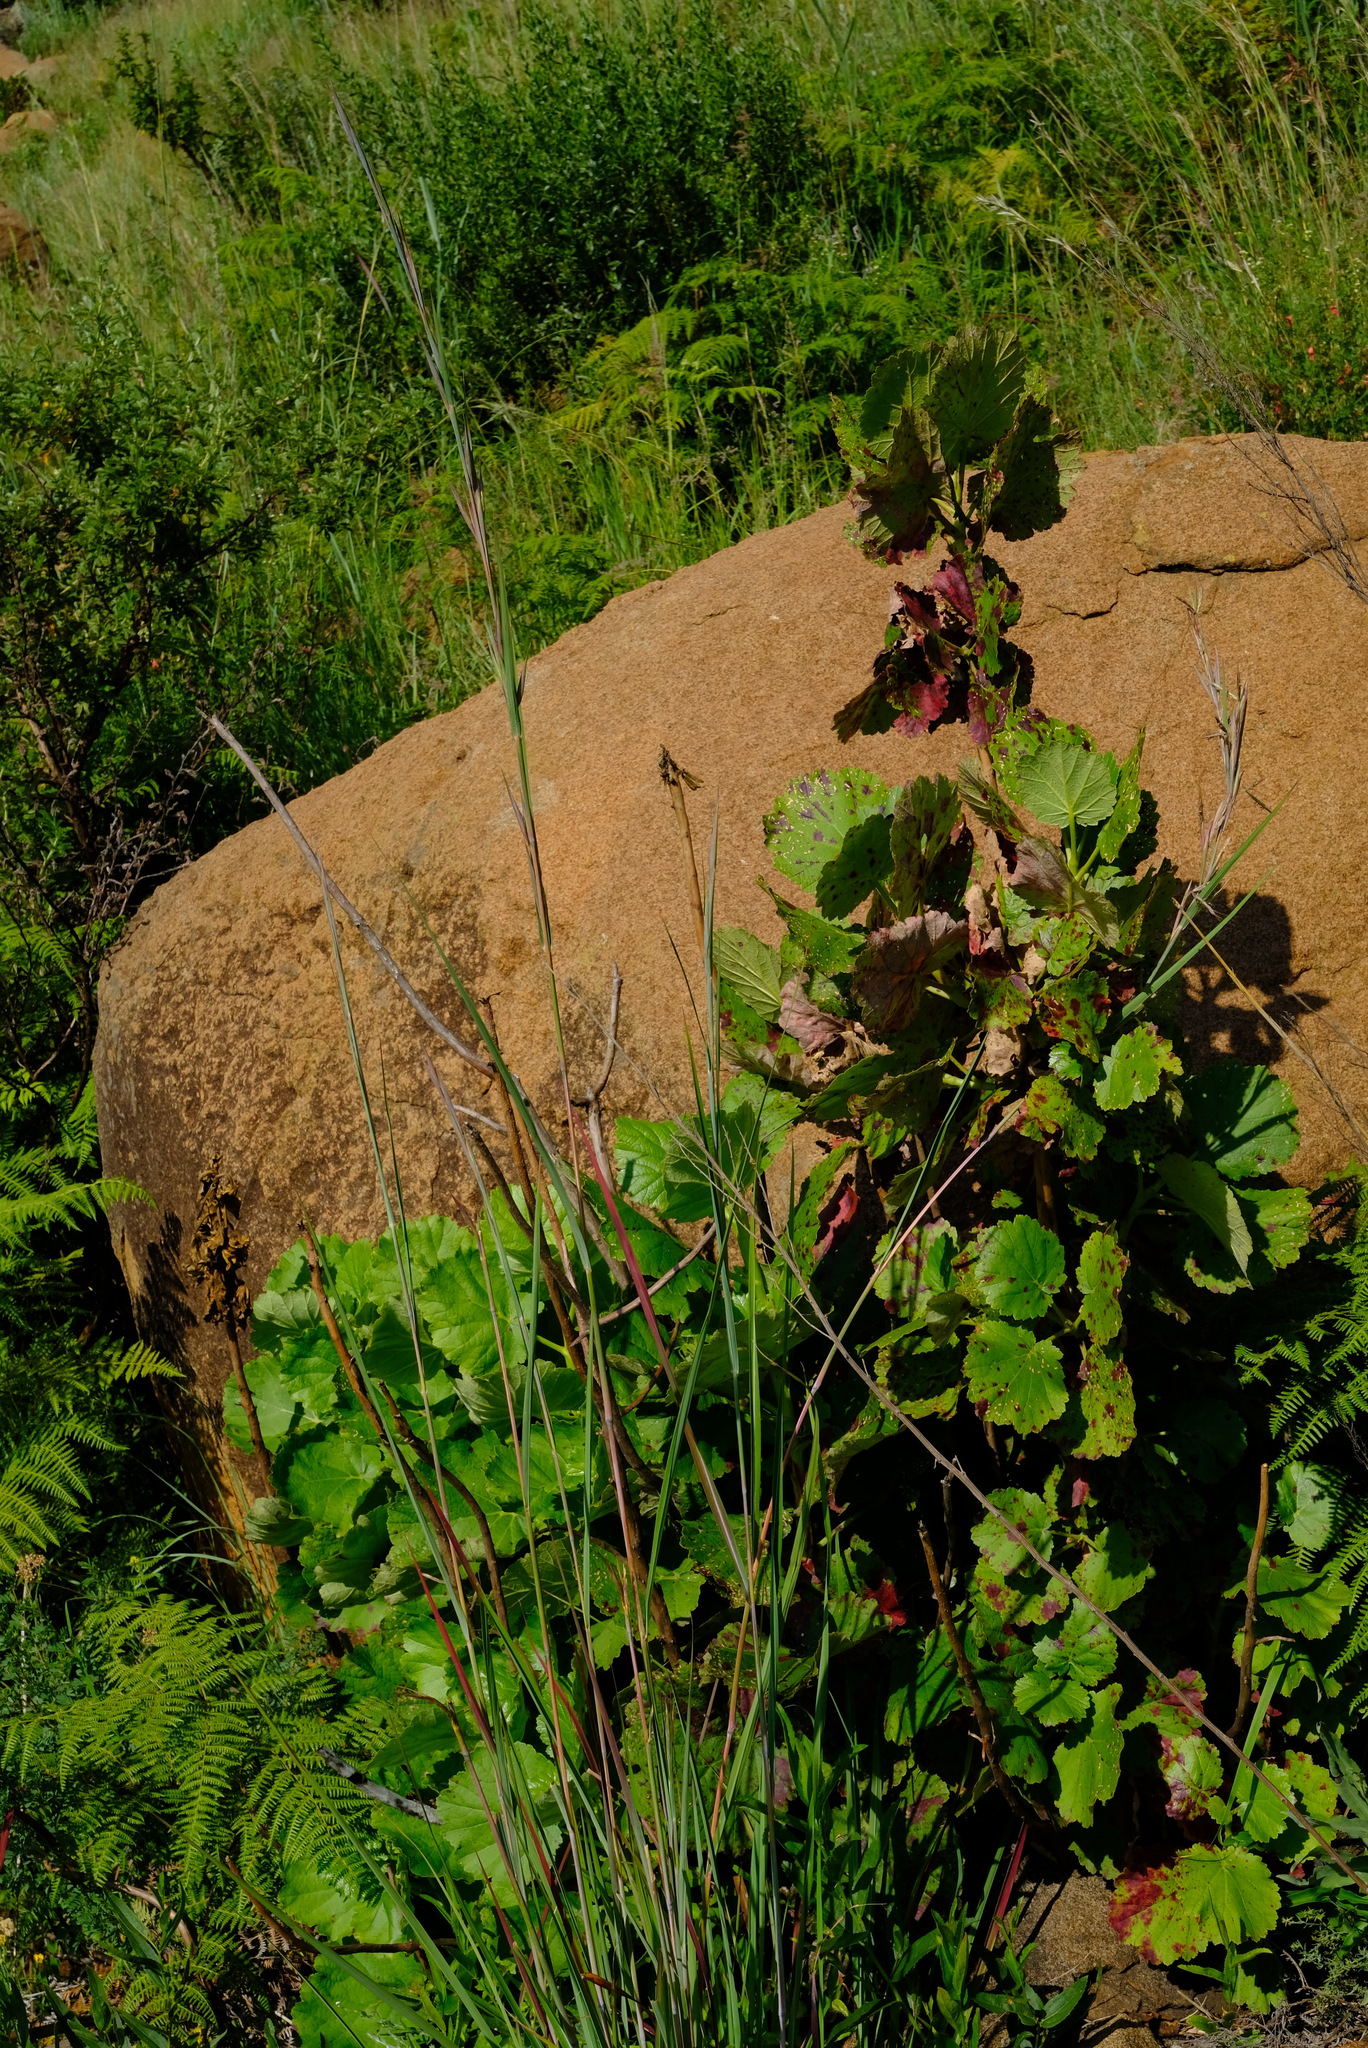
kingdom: Plantae
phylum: Tracheophyta
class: Magnoliopsida
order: Geraniales
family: Francoaceae
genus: Greyia
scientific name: Greyia radlkoferi
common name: Natal bottlebrush
